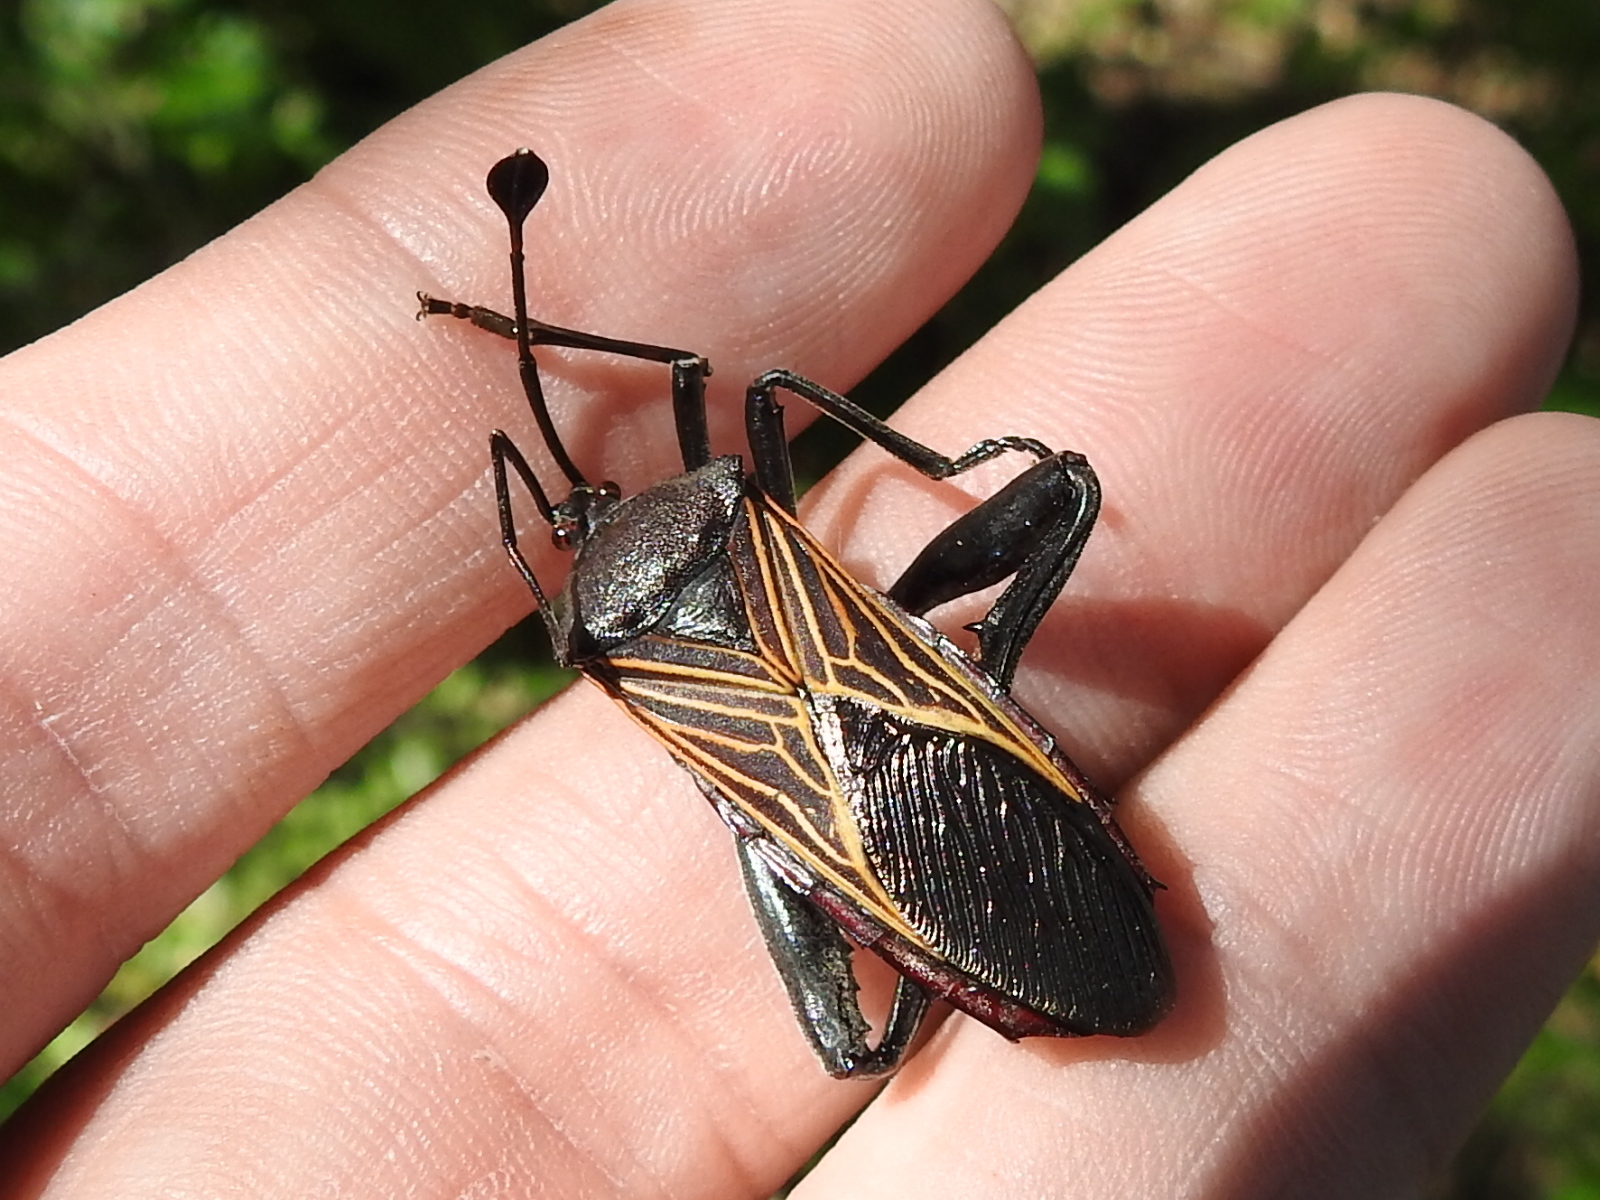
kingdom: Animalia
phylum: Arthropoda
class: Insecta
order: Hemiptera
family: Coreidae
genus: Thasus
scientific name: Thasus neocalifornicus
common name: Giant mesquite bug
